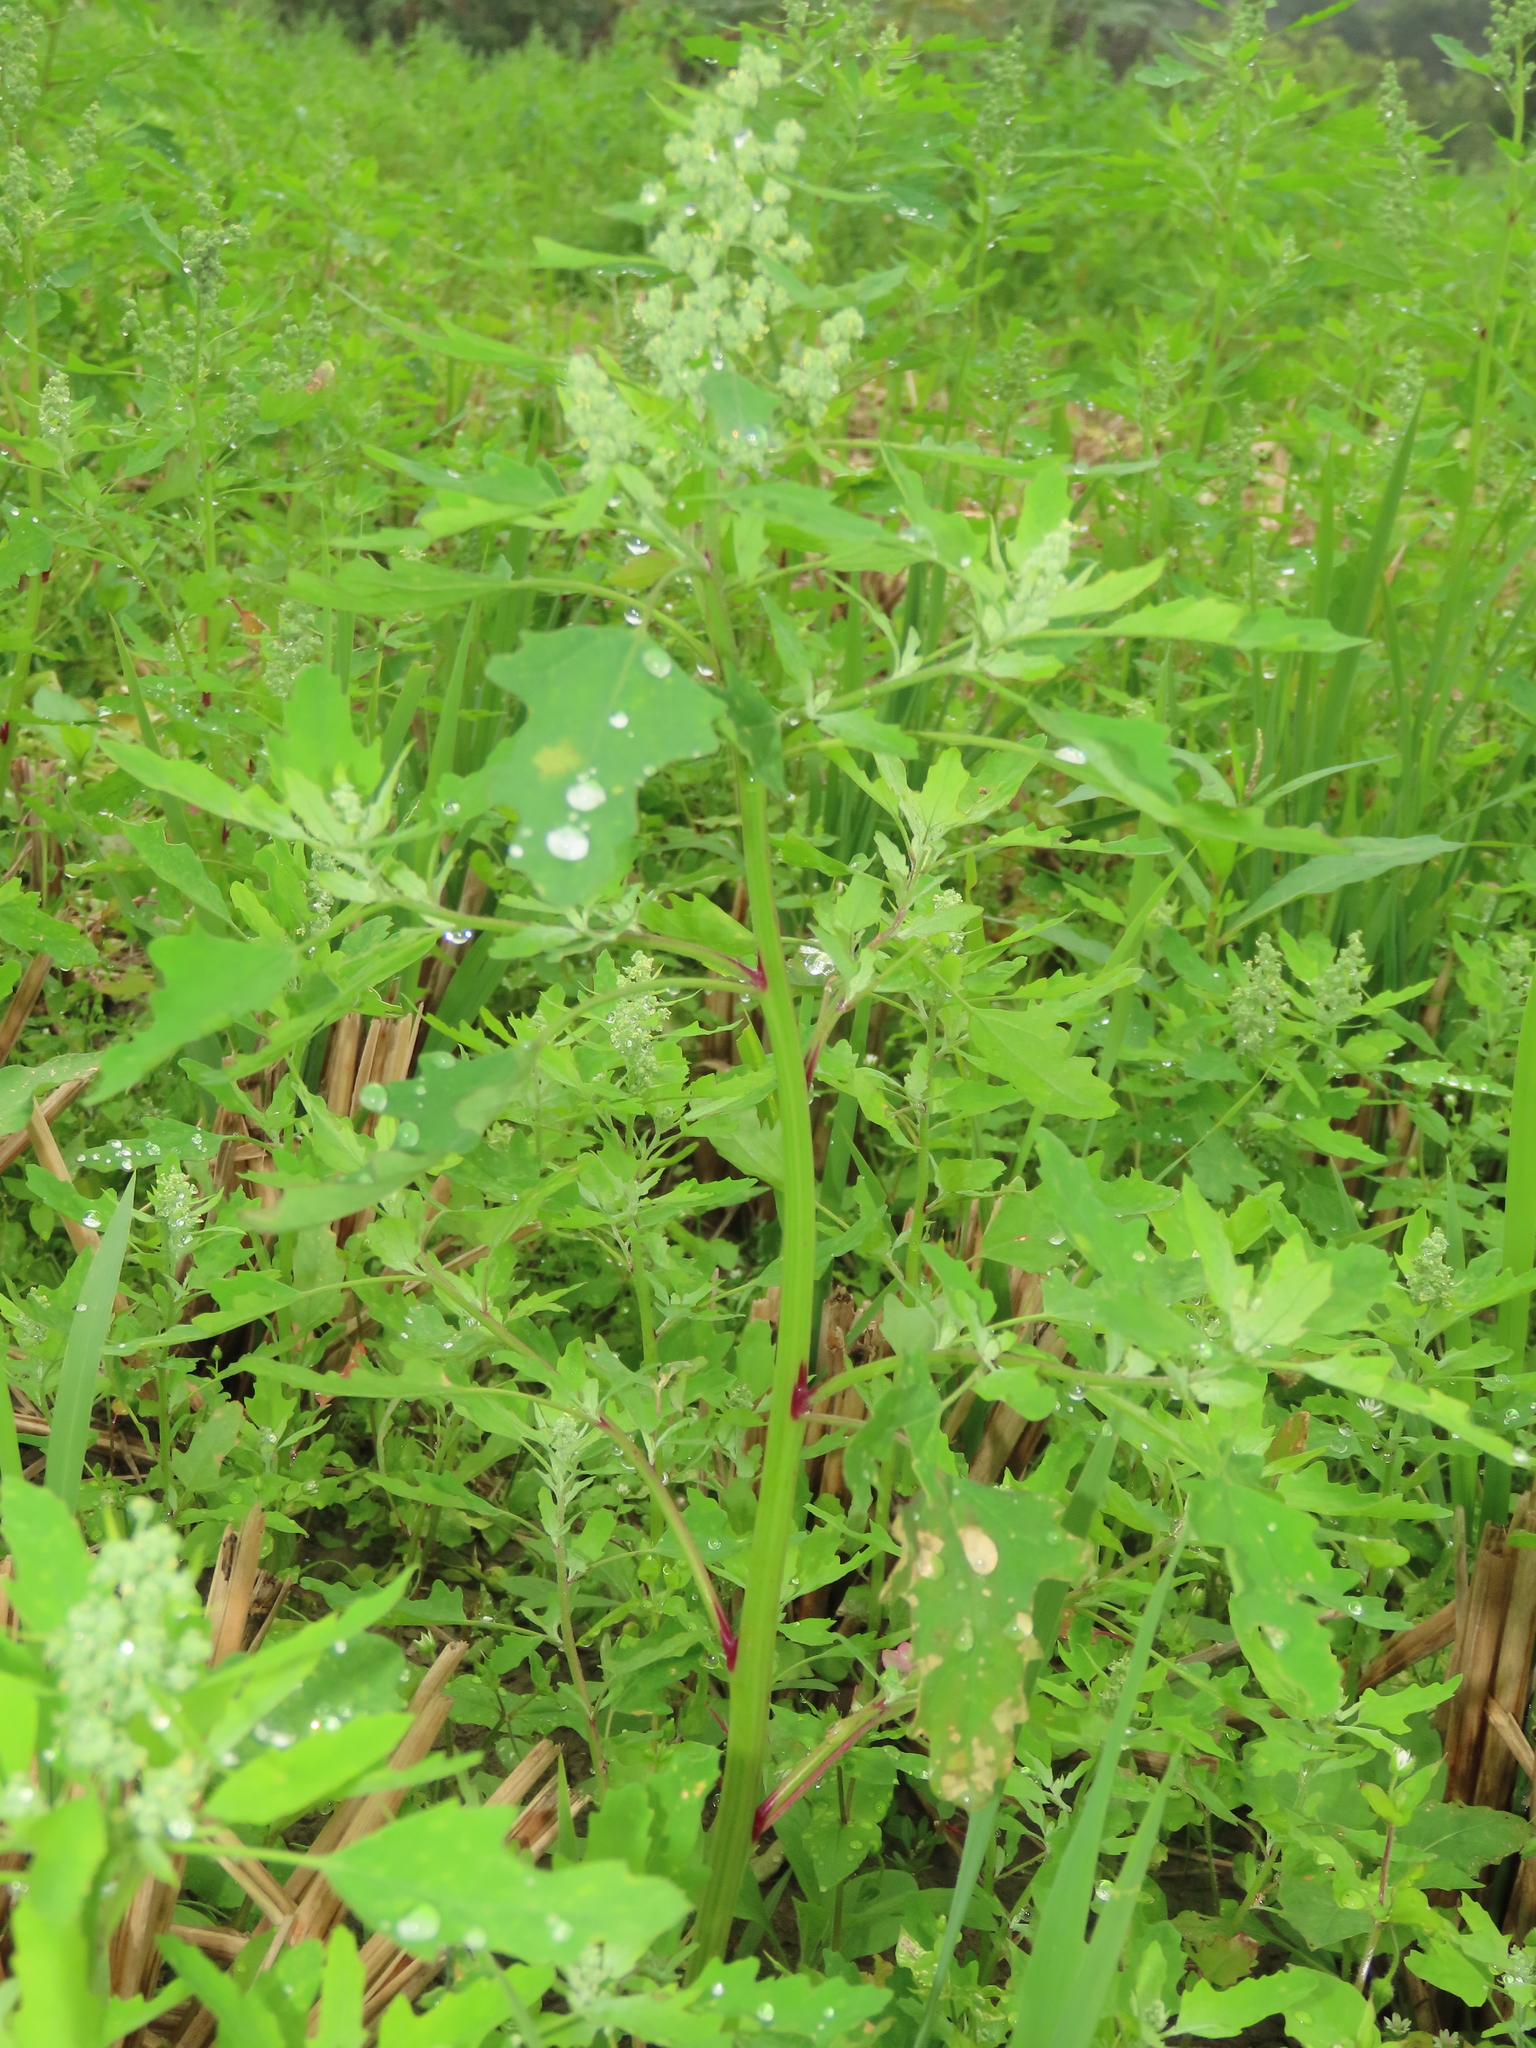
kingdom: Plantae
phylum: Tracheophyta
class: Magnoliopsida
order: Caryophyllales
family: Amaranthaceae
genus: Chenopodium
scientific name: Chenopodium ficifolium
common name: Fig-leaved goosefoot
